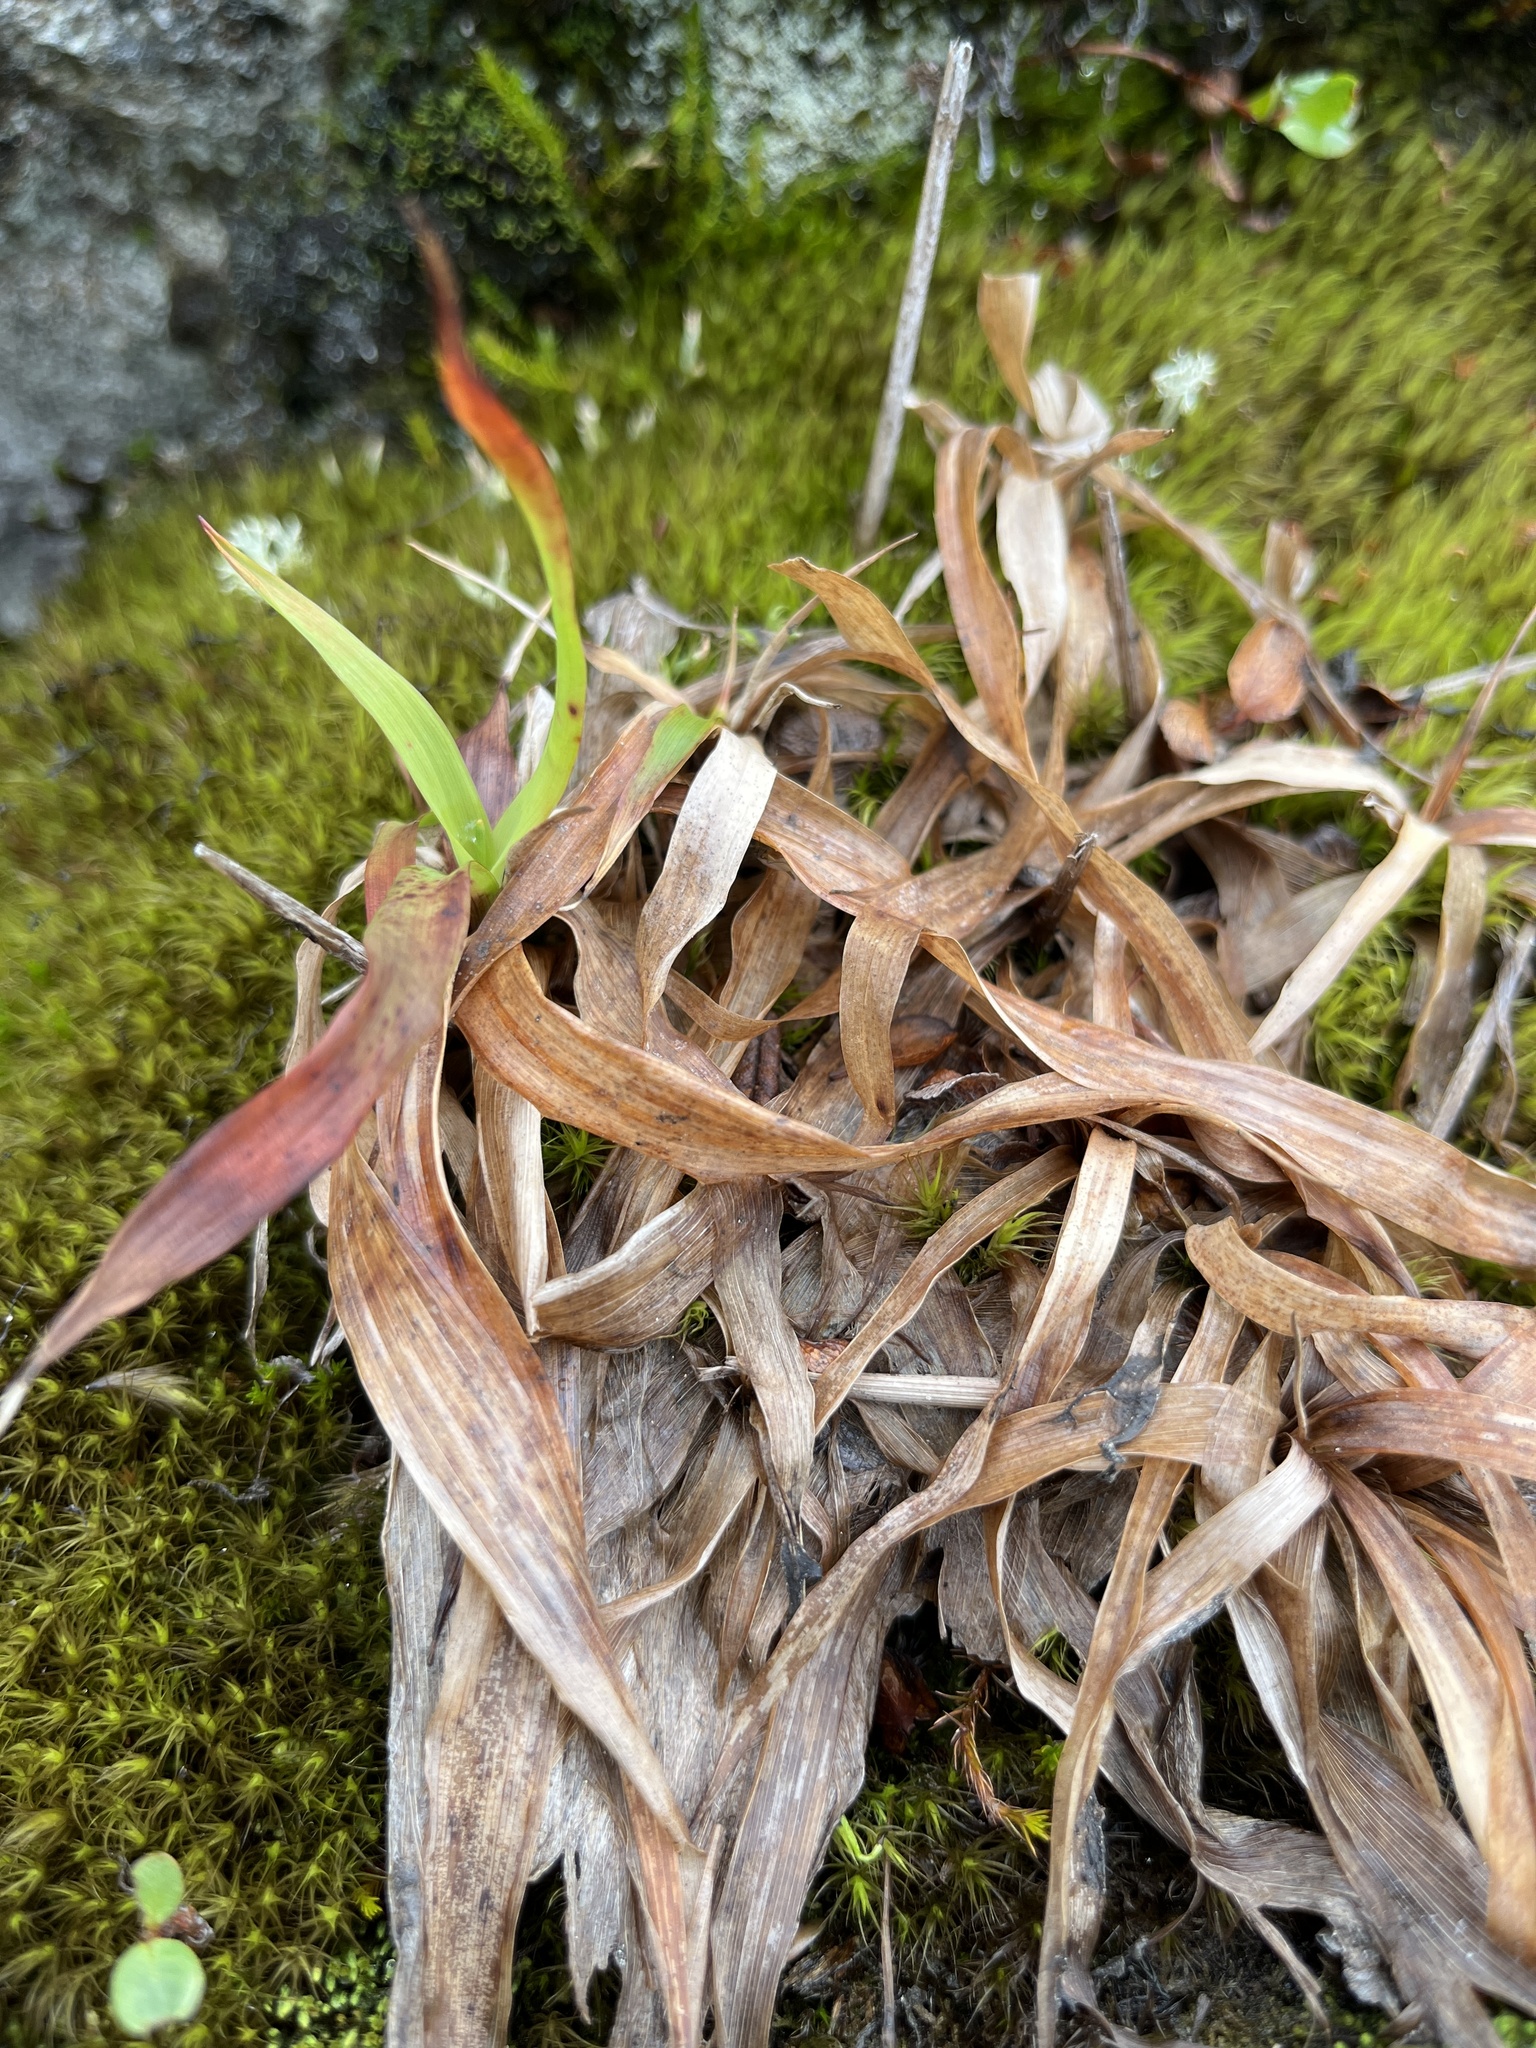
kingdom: Plantae
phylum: Tracheophyta
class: Liliopsida
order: Poales
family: Juncaceae
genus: Luzula
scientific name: Luzula parviflora
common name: Millet woodrush
